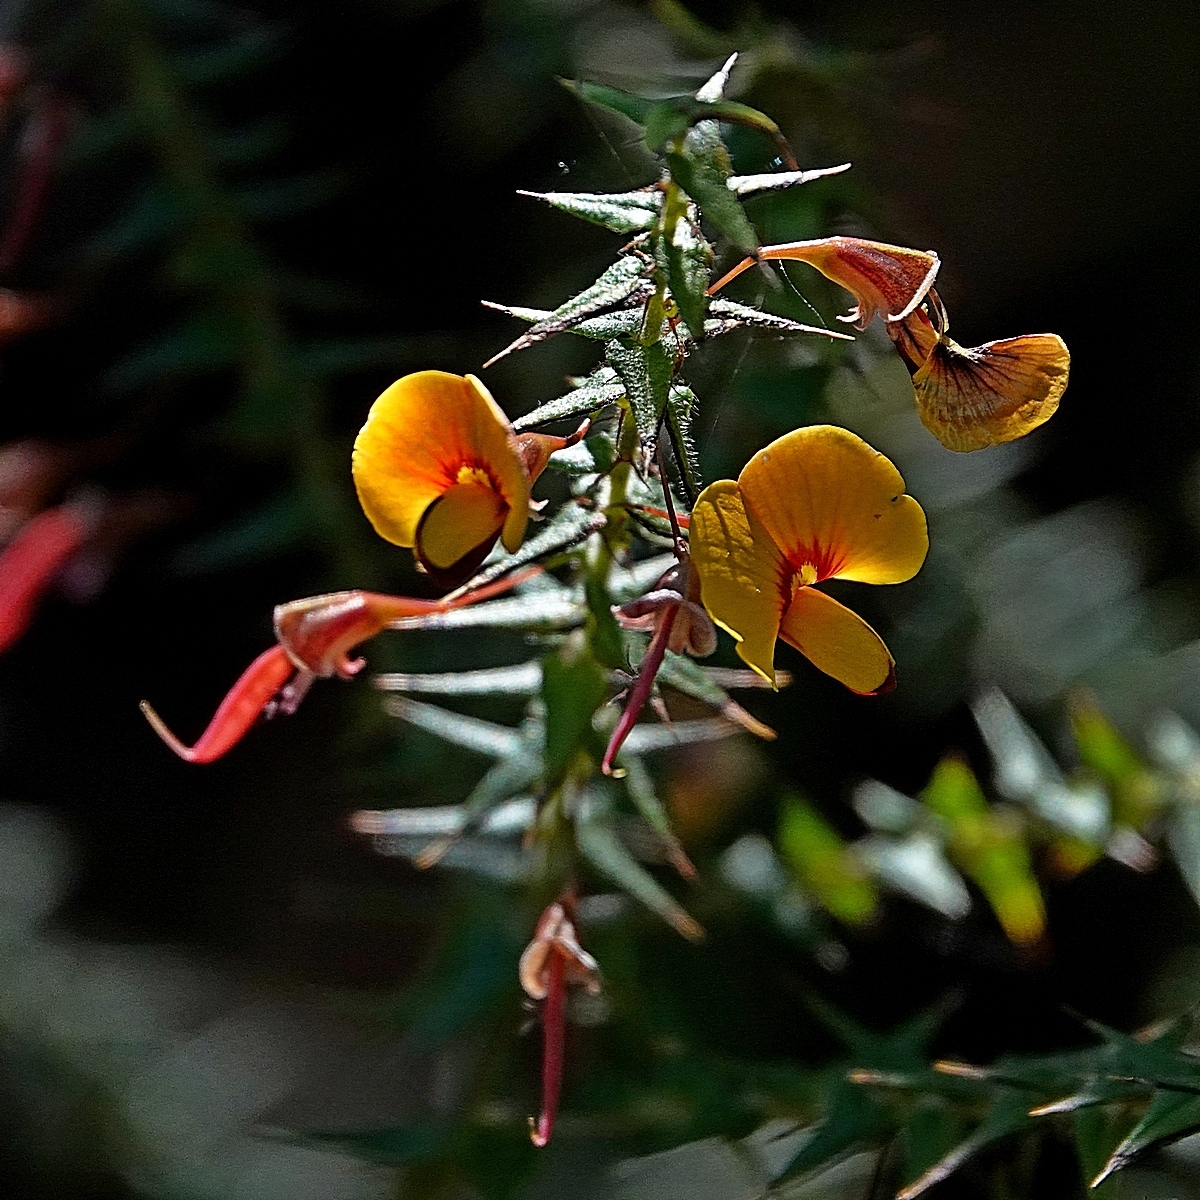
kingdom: Plantae
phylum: Tracheophyta
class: Magnoliopsida
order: Fabales
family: Fabaceae
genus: Bossiaea
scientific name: Bossiaea cinerea
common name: Showy bossiaea
